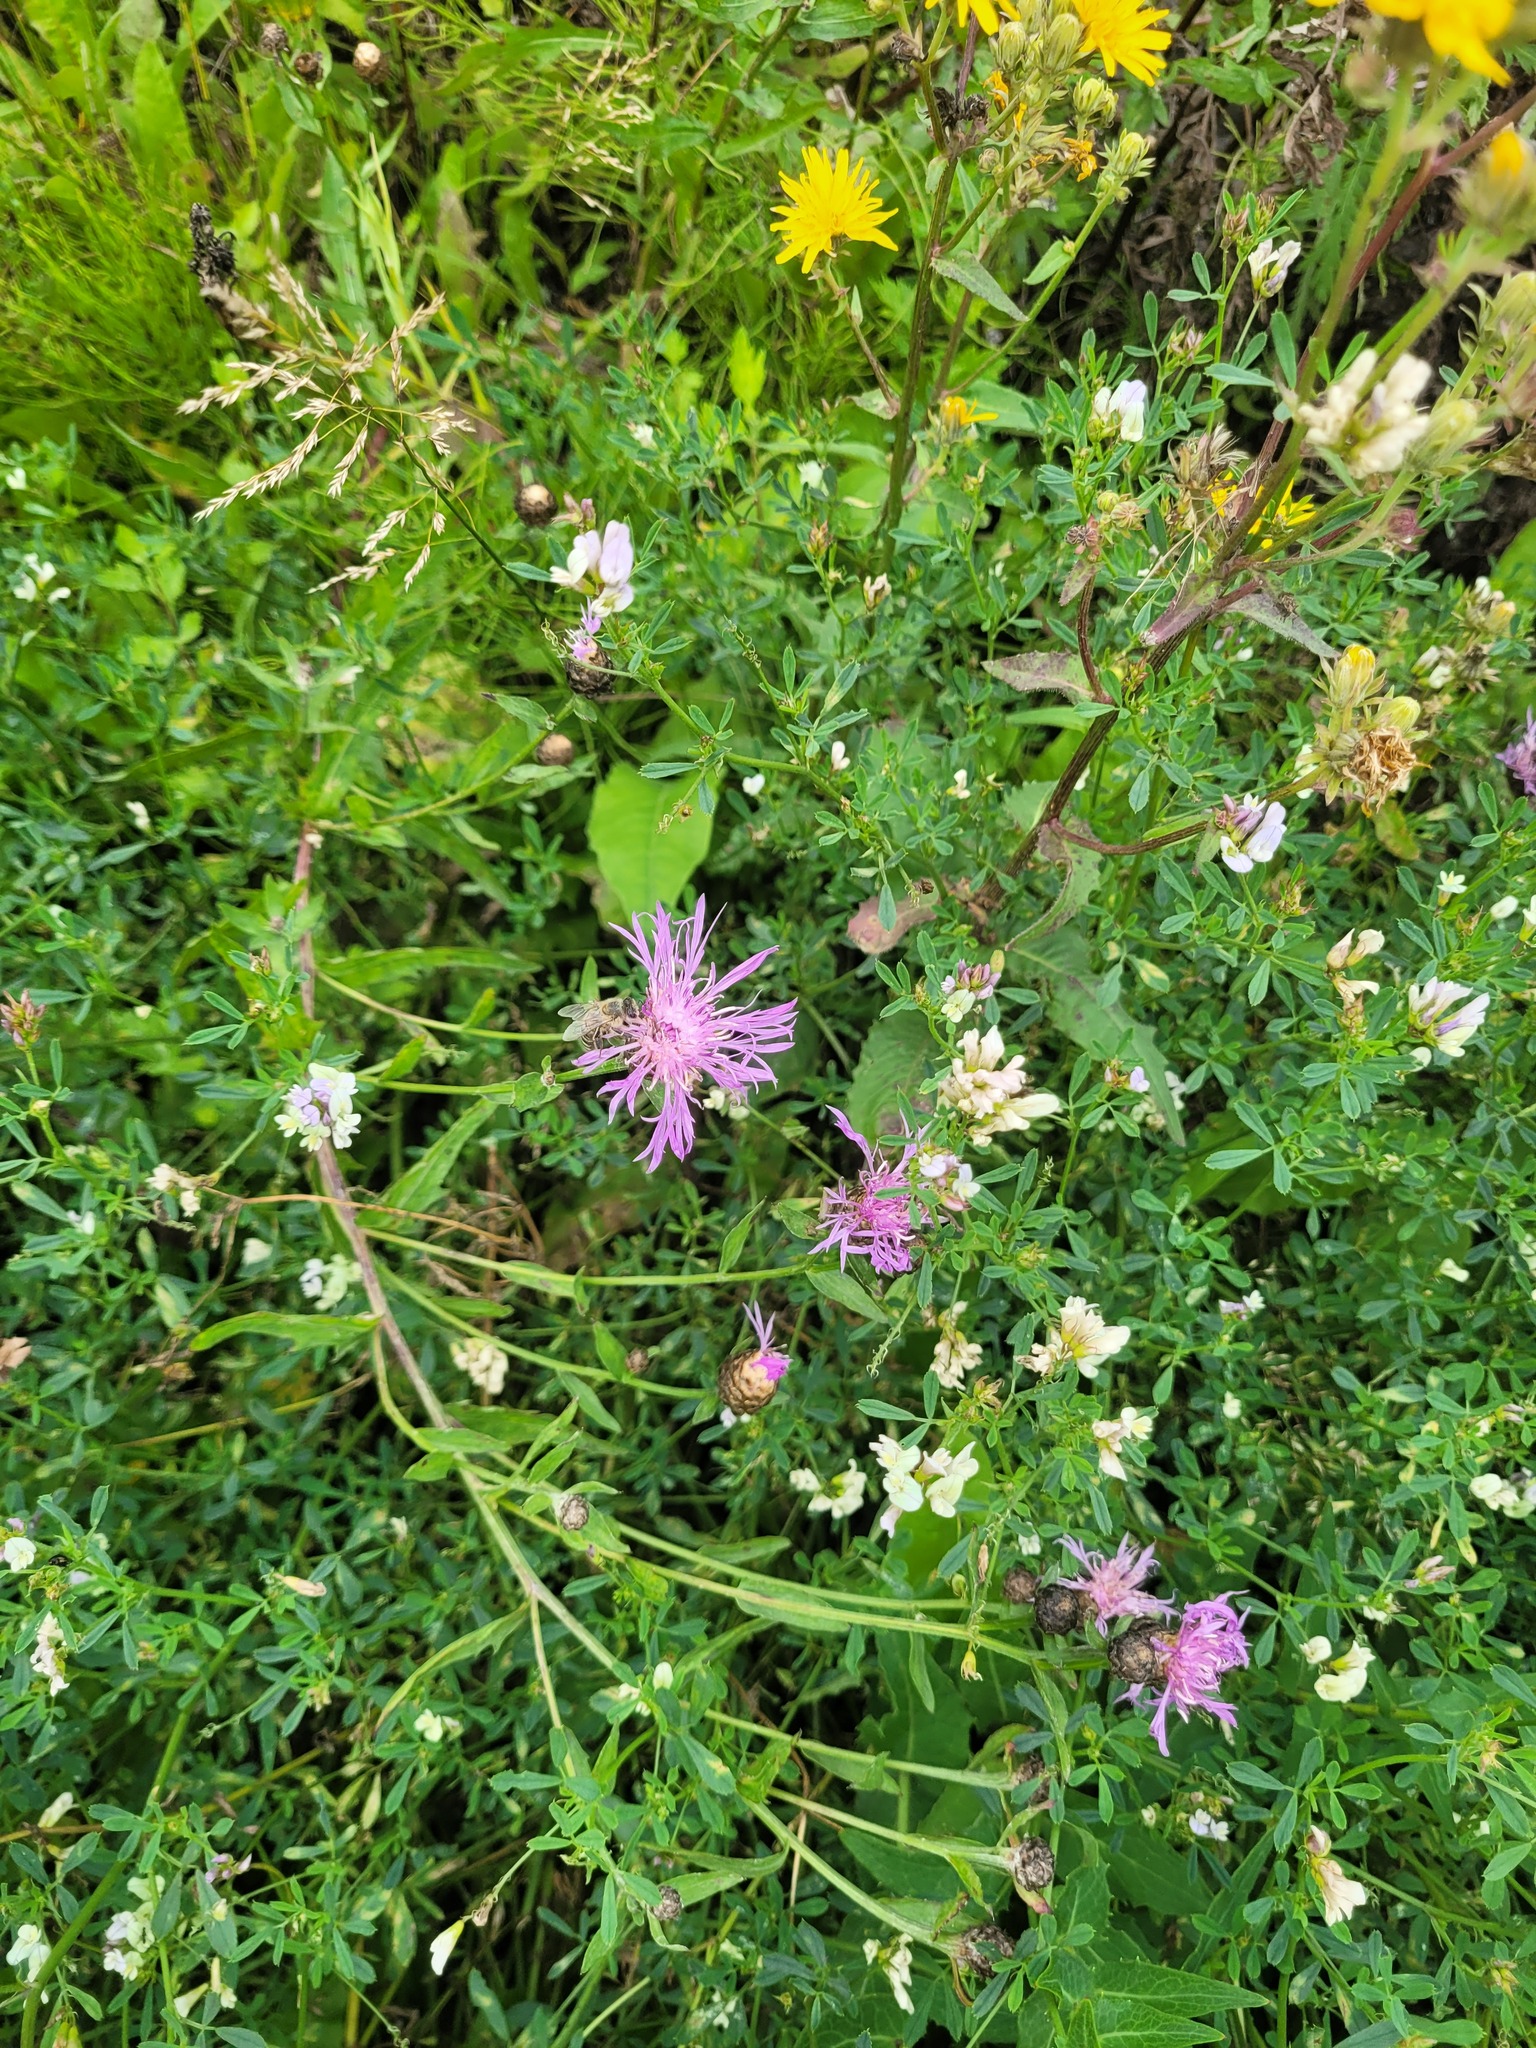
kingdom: Plantae
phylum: Tracheophyta
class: Magnoliopsida
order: Asterales
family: Asteraceae
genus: Centaurea
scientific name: Centaurea jacea
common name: Brown knapweed
